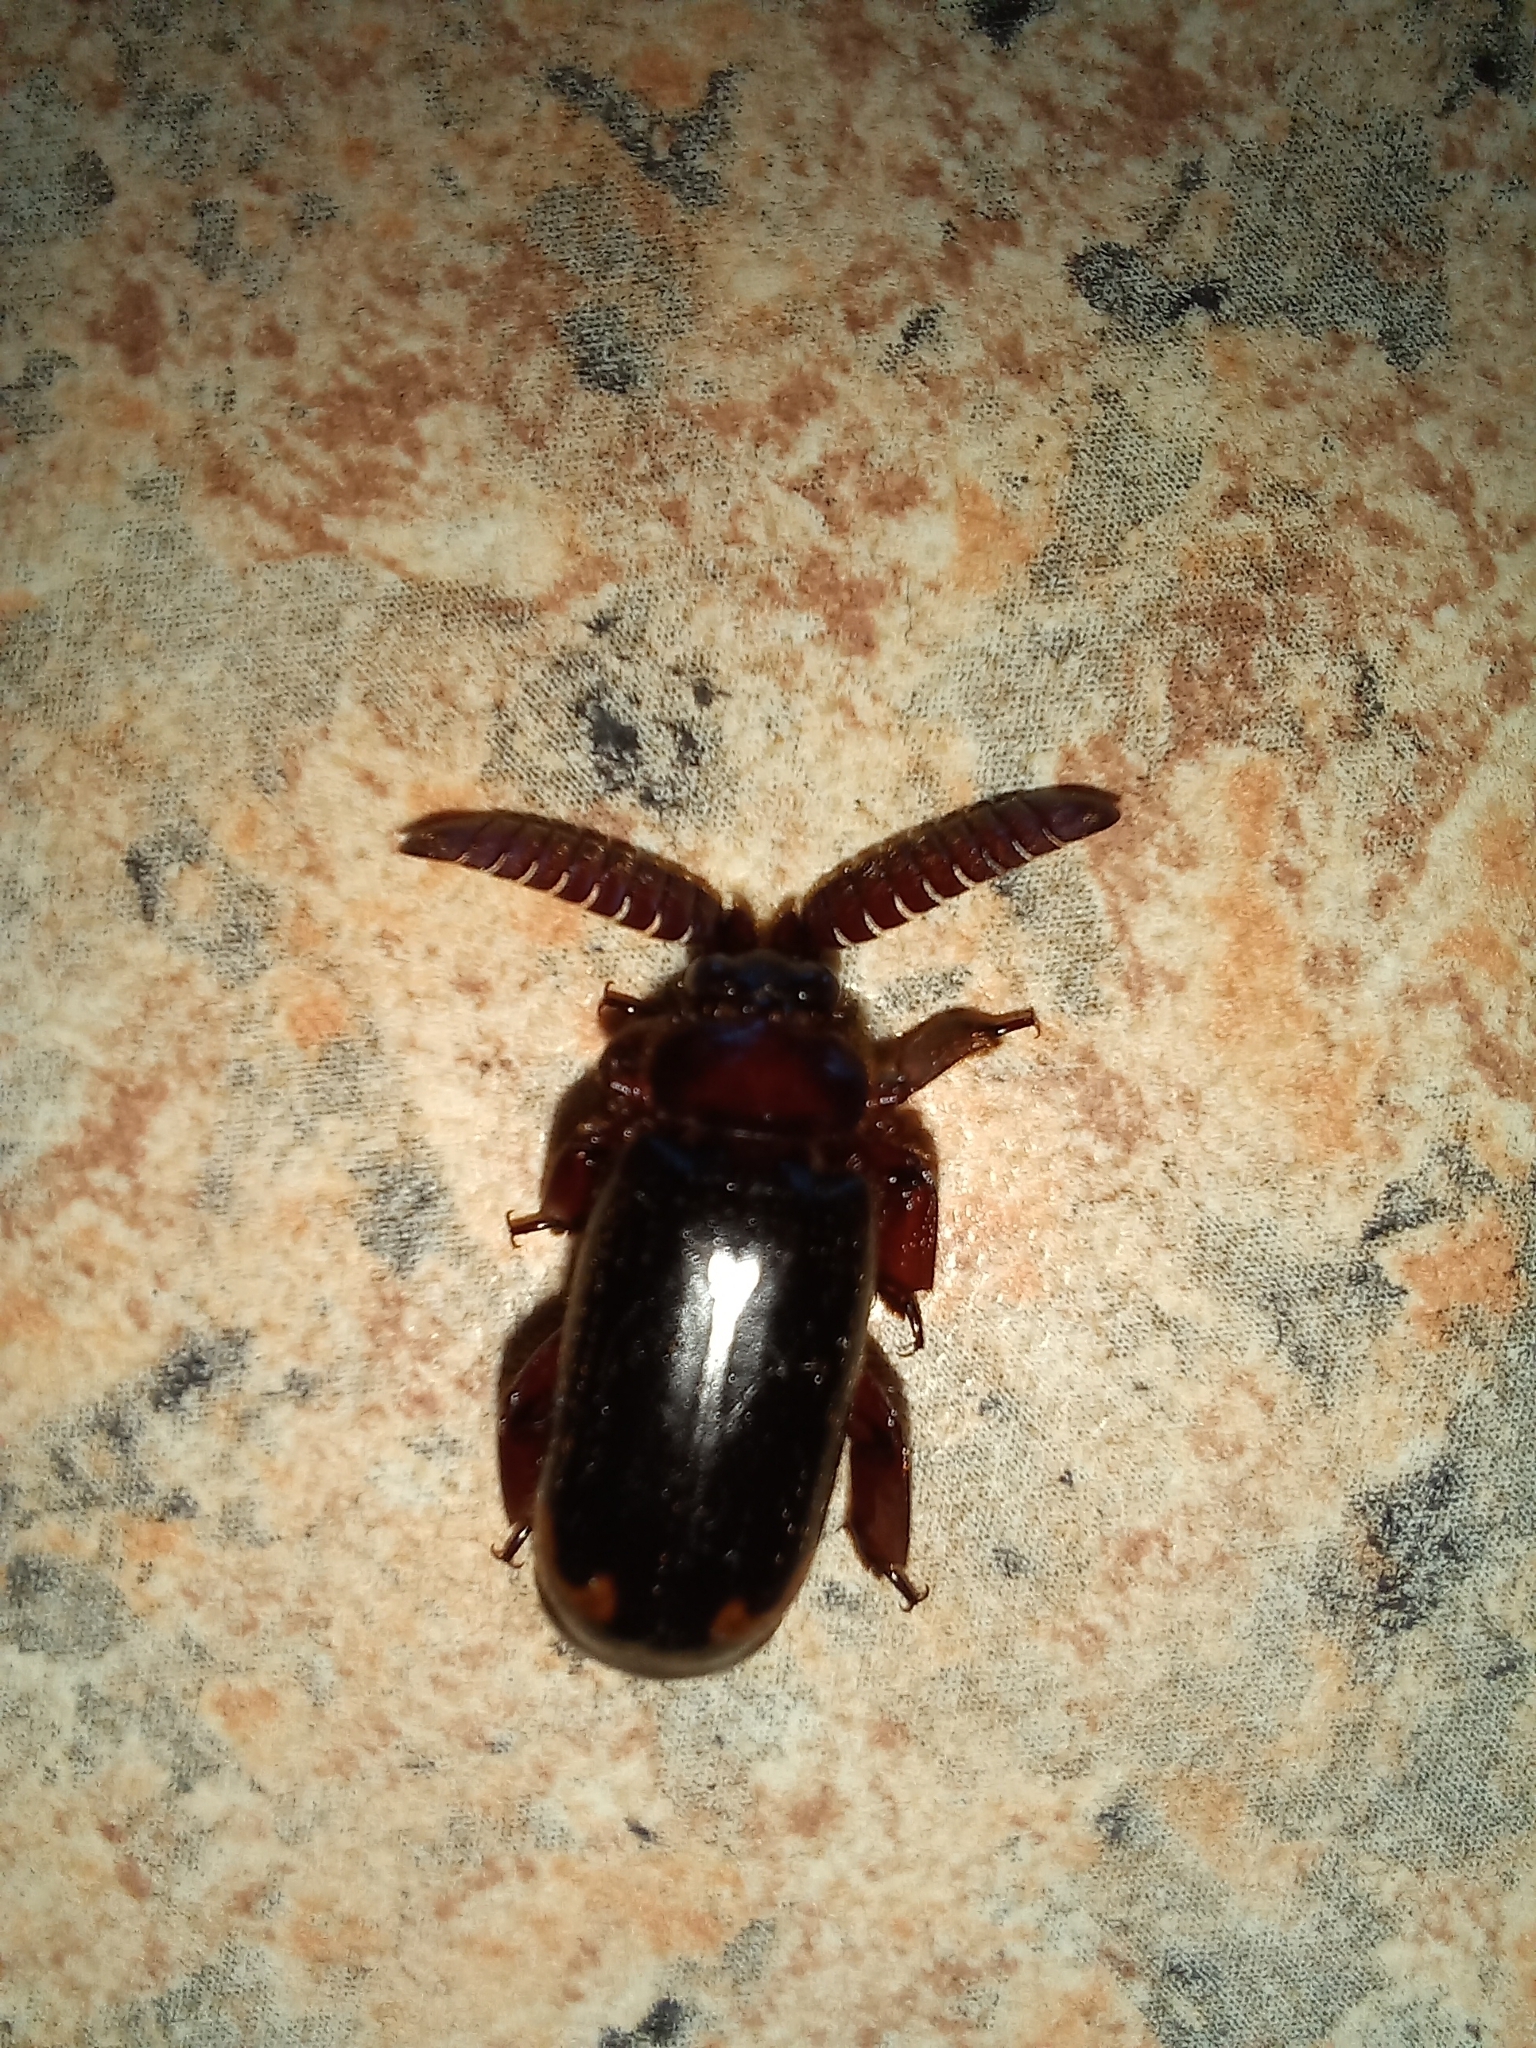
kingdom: Animalia
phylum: Arthropoda
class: Insecta
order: Coleoptera
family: Carabidae
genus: Cerapterus
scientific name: Cerapterus laceratus
